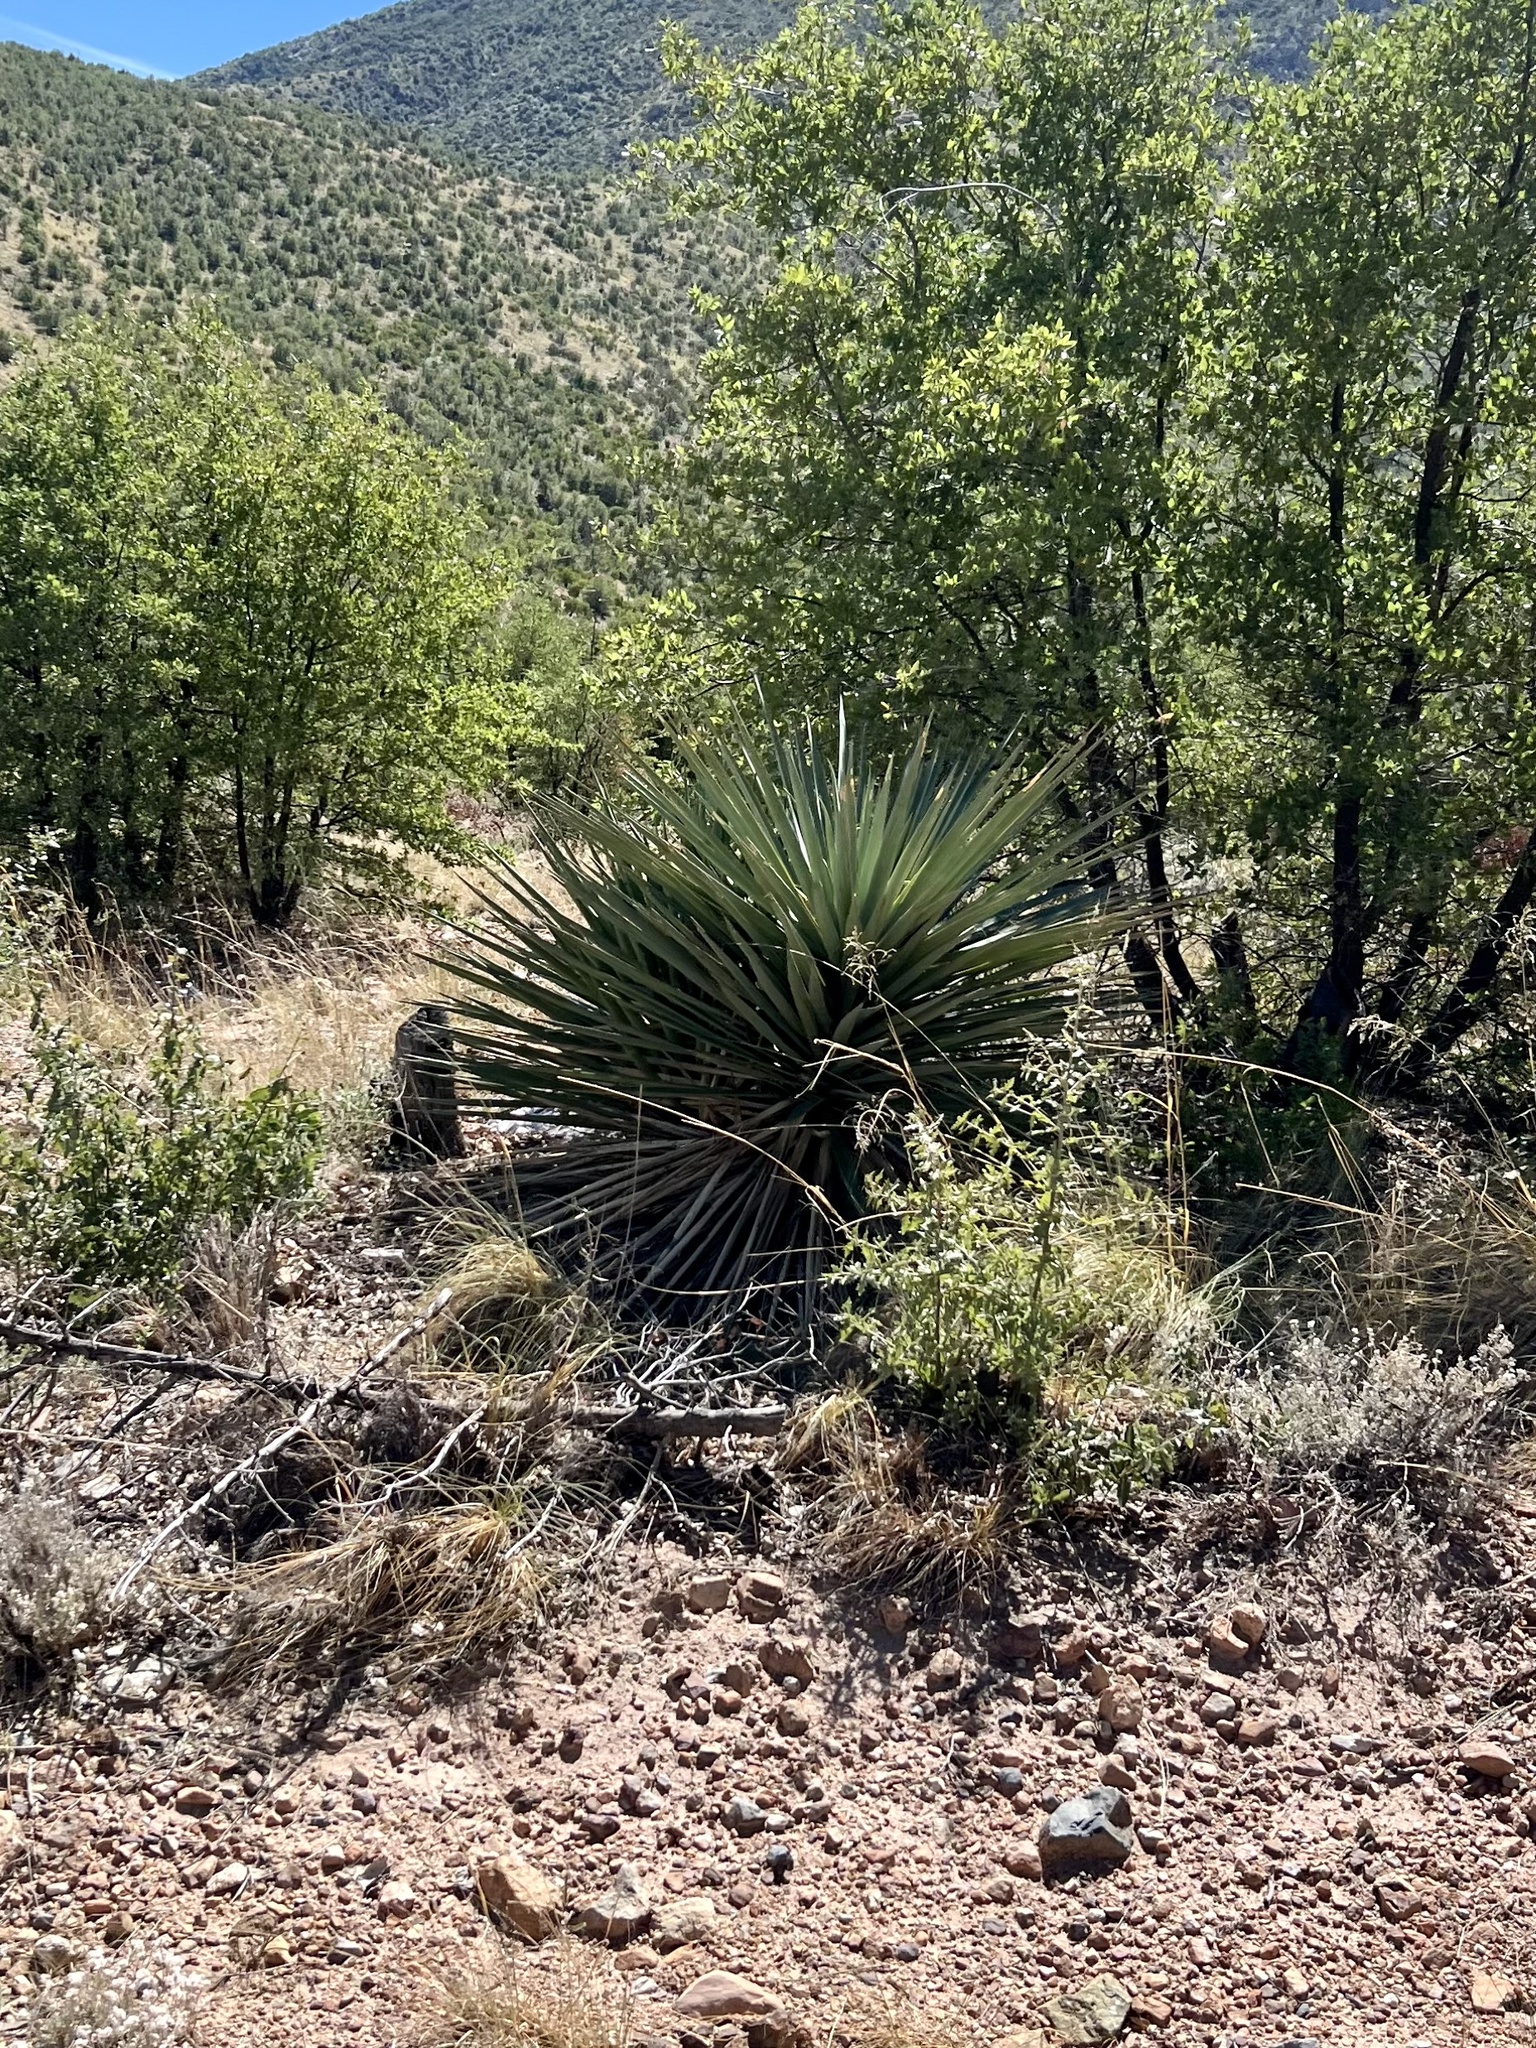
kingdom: Plantae
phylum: Tracheophyta
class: Liliopsida
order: Asparagales
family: Asparagaceae
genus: Yucca
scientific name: Yucca schottii
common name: Hoary yucca
